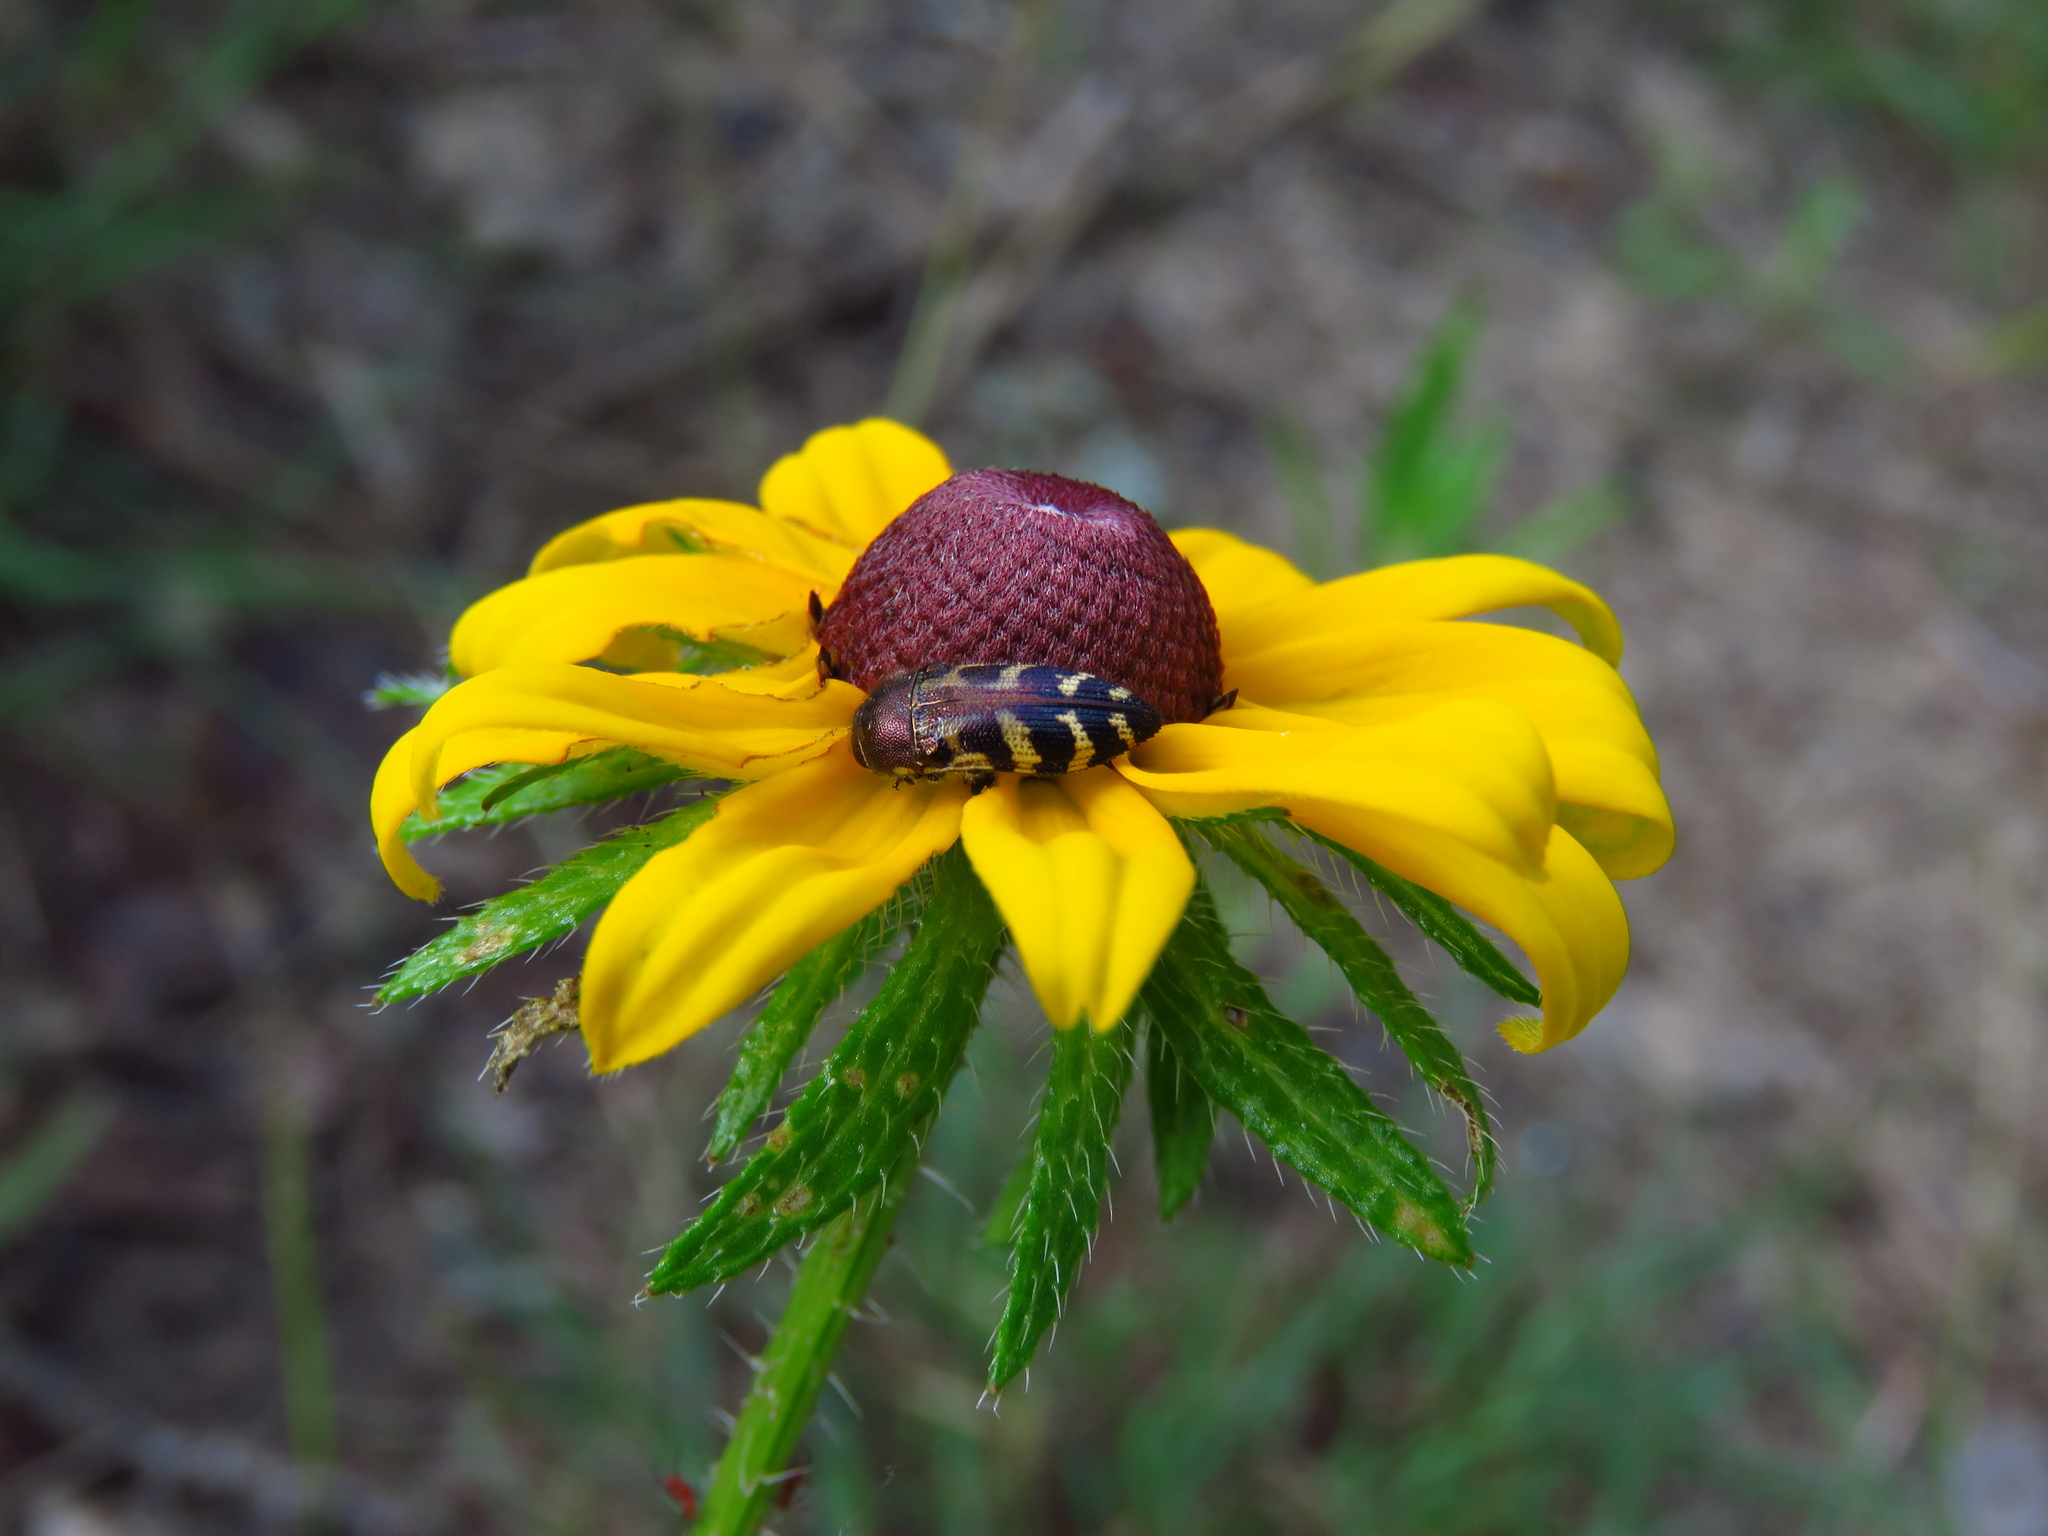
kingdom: Plantae
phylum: Tracheophyta
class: Magnoliopsida
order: Asterales
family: Asteraceae
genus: Rudbeckia
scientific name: Rudbeckia hirta
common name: Black-eyed-susan
